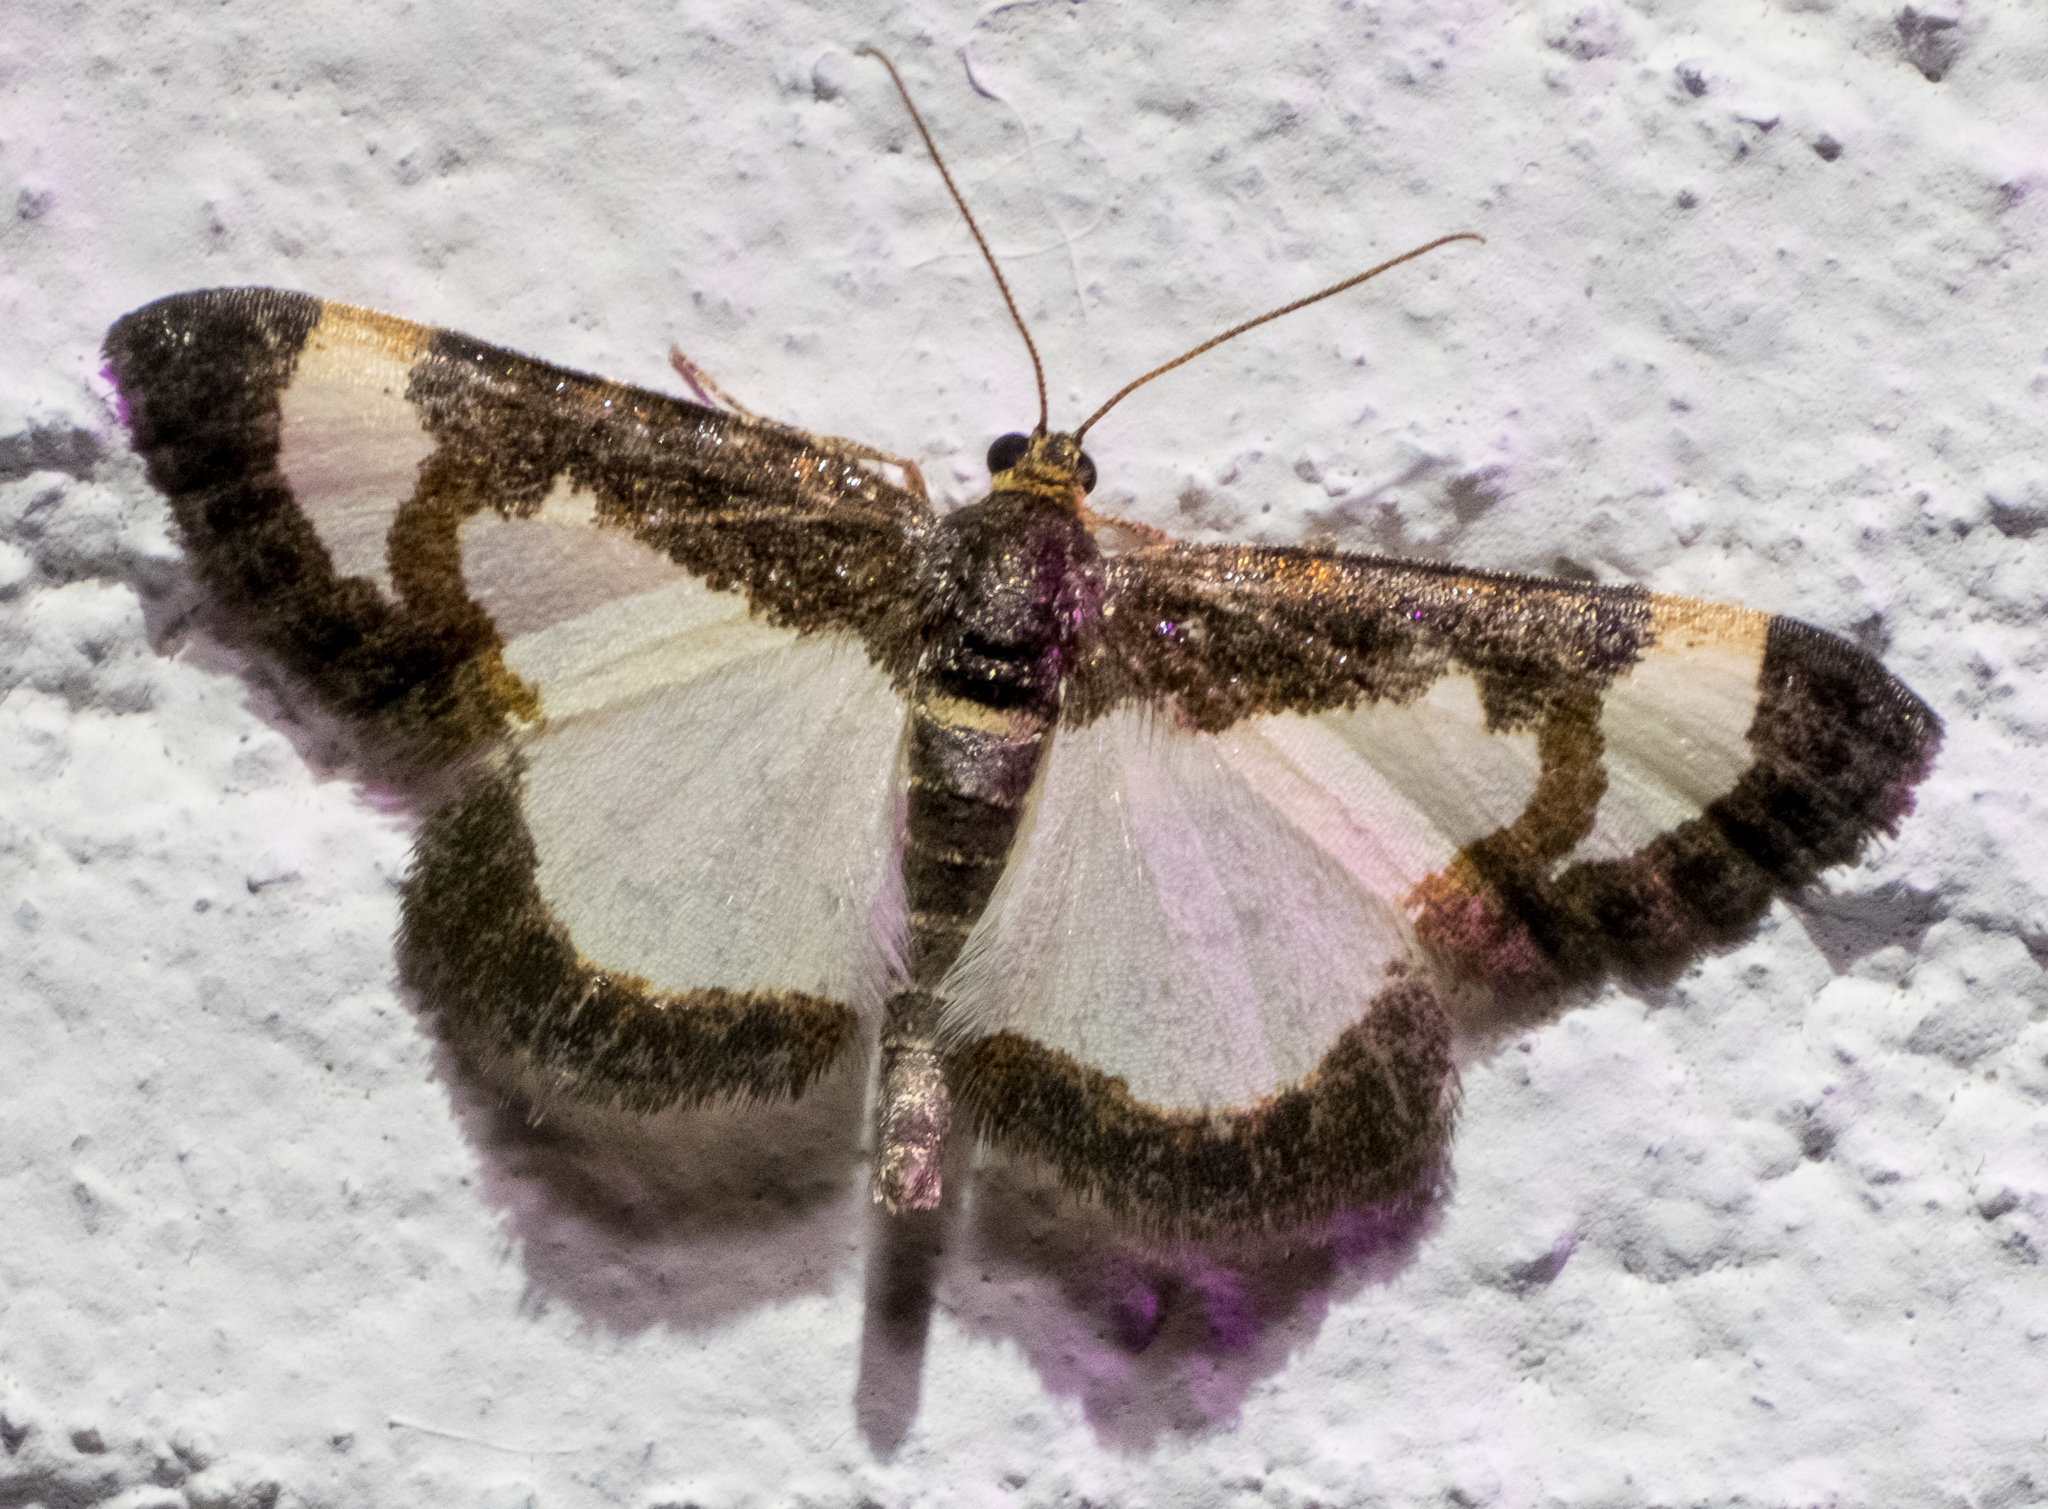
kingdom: Animalia
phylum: Arthropoda
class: Insecta
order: Lepidoptera
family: Geometridae
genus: Heliomata
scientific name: Heliomata cycladata
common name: Common spring moth
